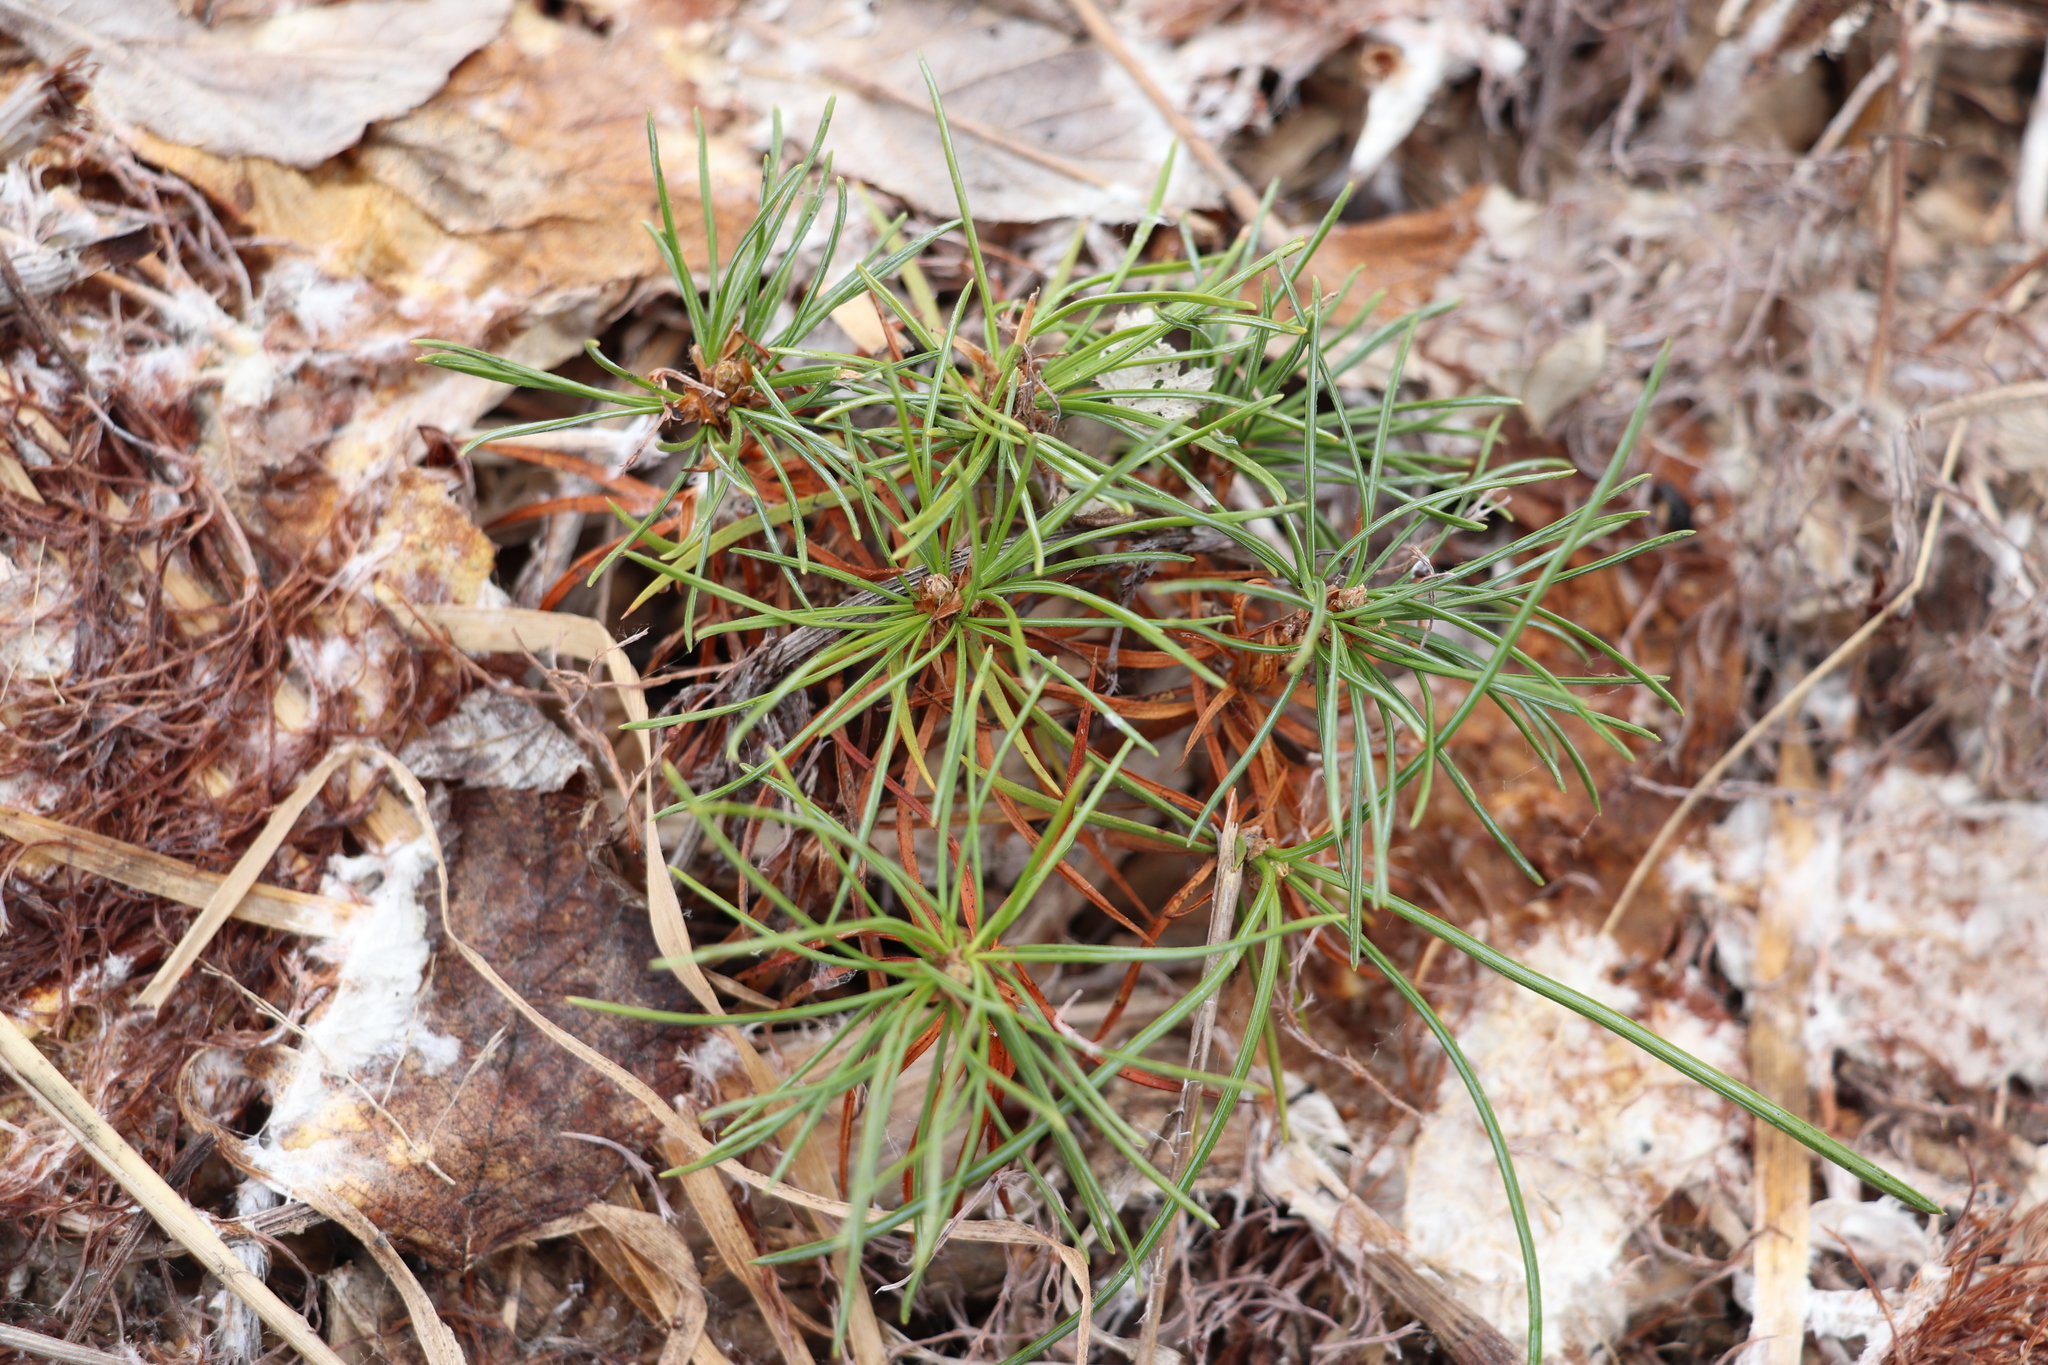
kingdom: Plantae
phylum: Tracheophyta
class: Pinopsida
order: Pinales
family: Pinaceae
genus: Pinus
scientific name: Pinus sibirica
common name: Siberian pine
